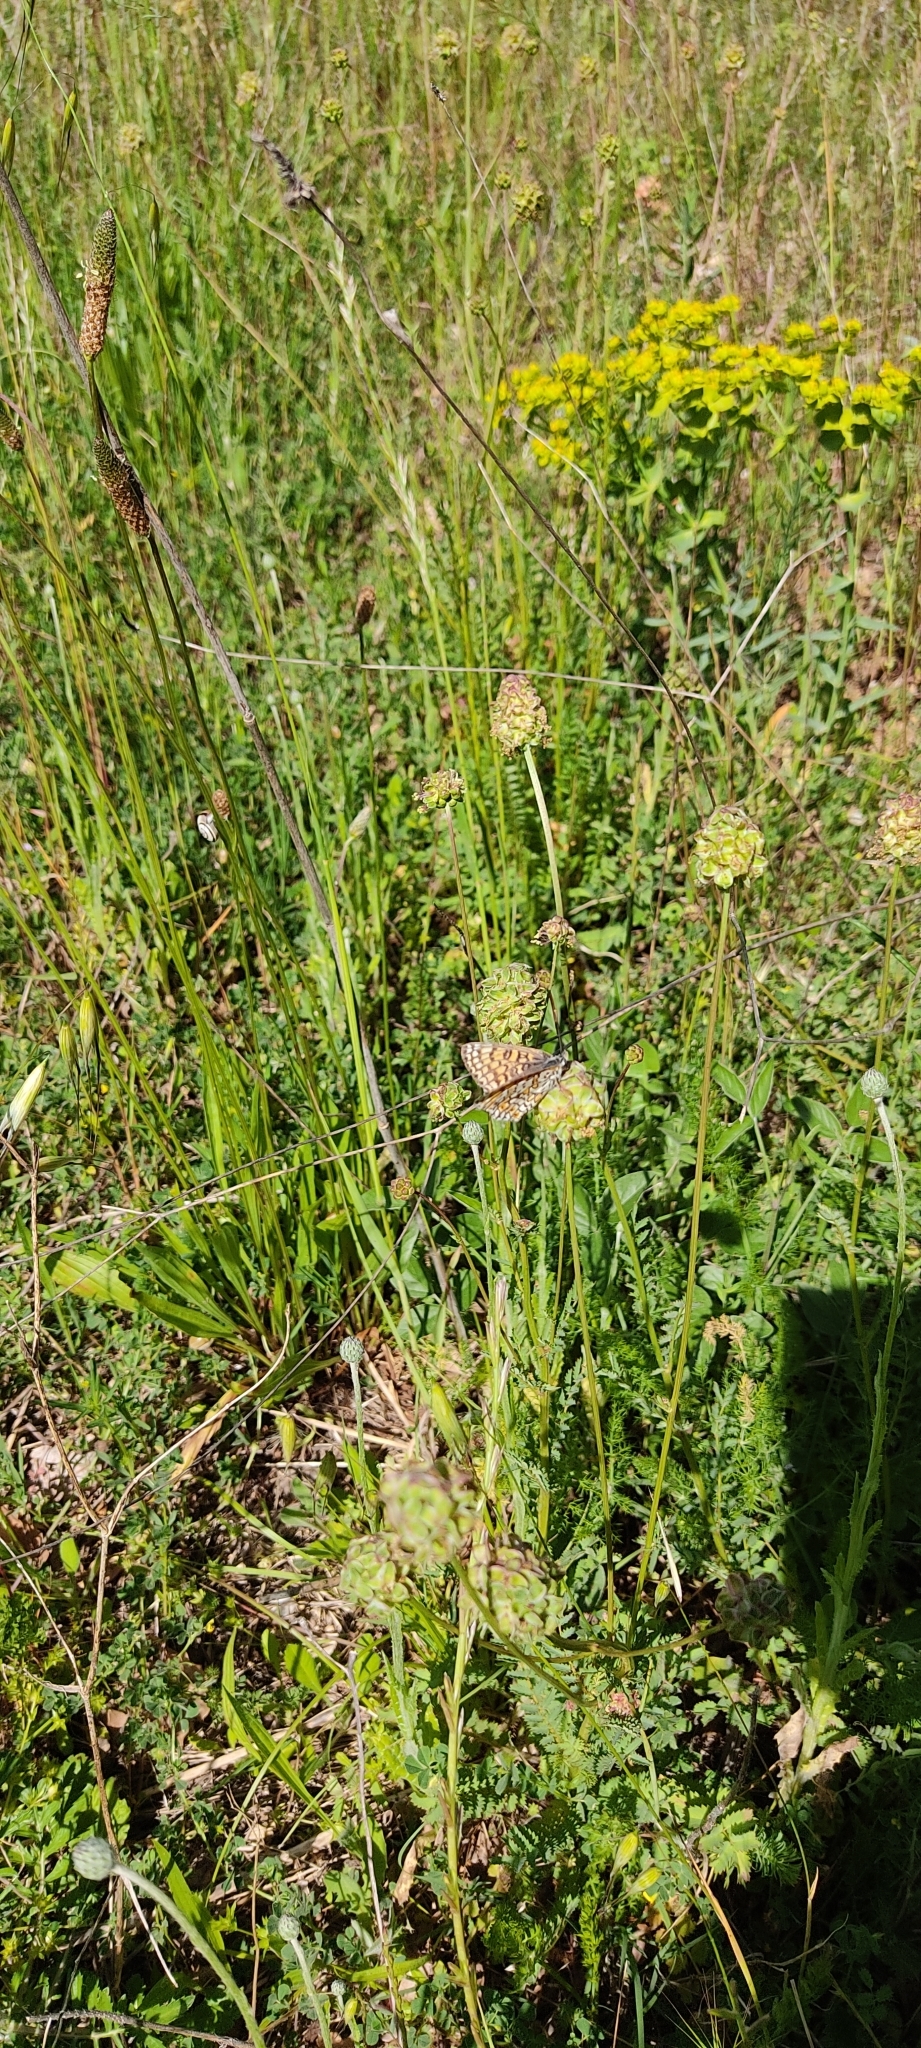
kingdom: Animalia
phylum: Arthropoda
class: Insecta
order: Lepidoptera
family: Nymphalidae
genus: Melitaea
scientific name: Melitaea cinxia
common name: Glanville fritillary
